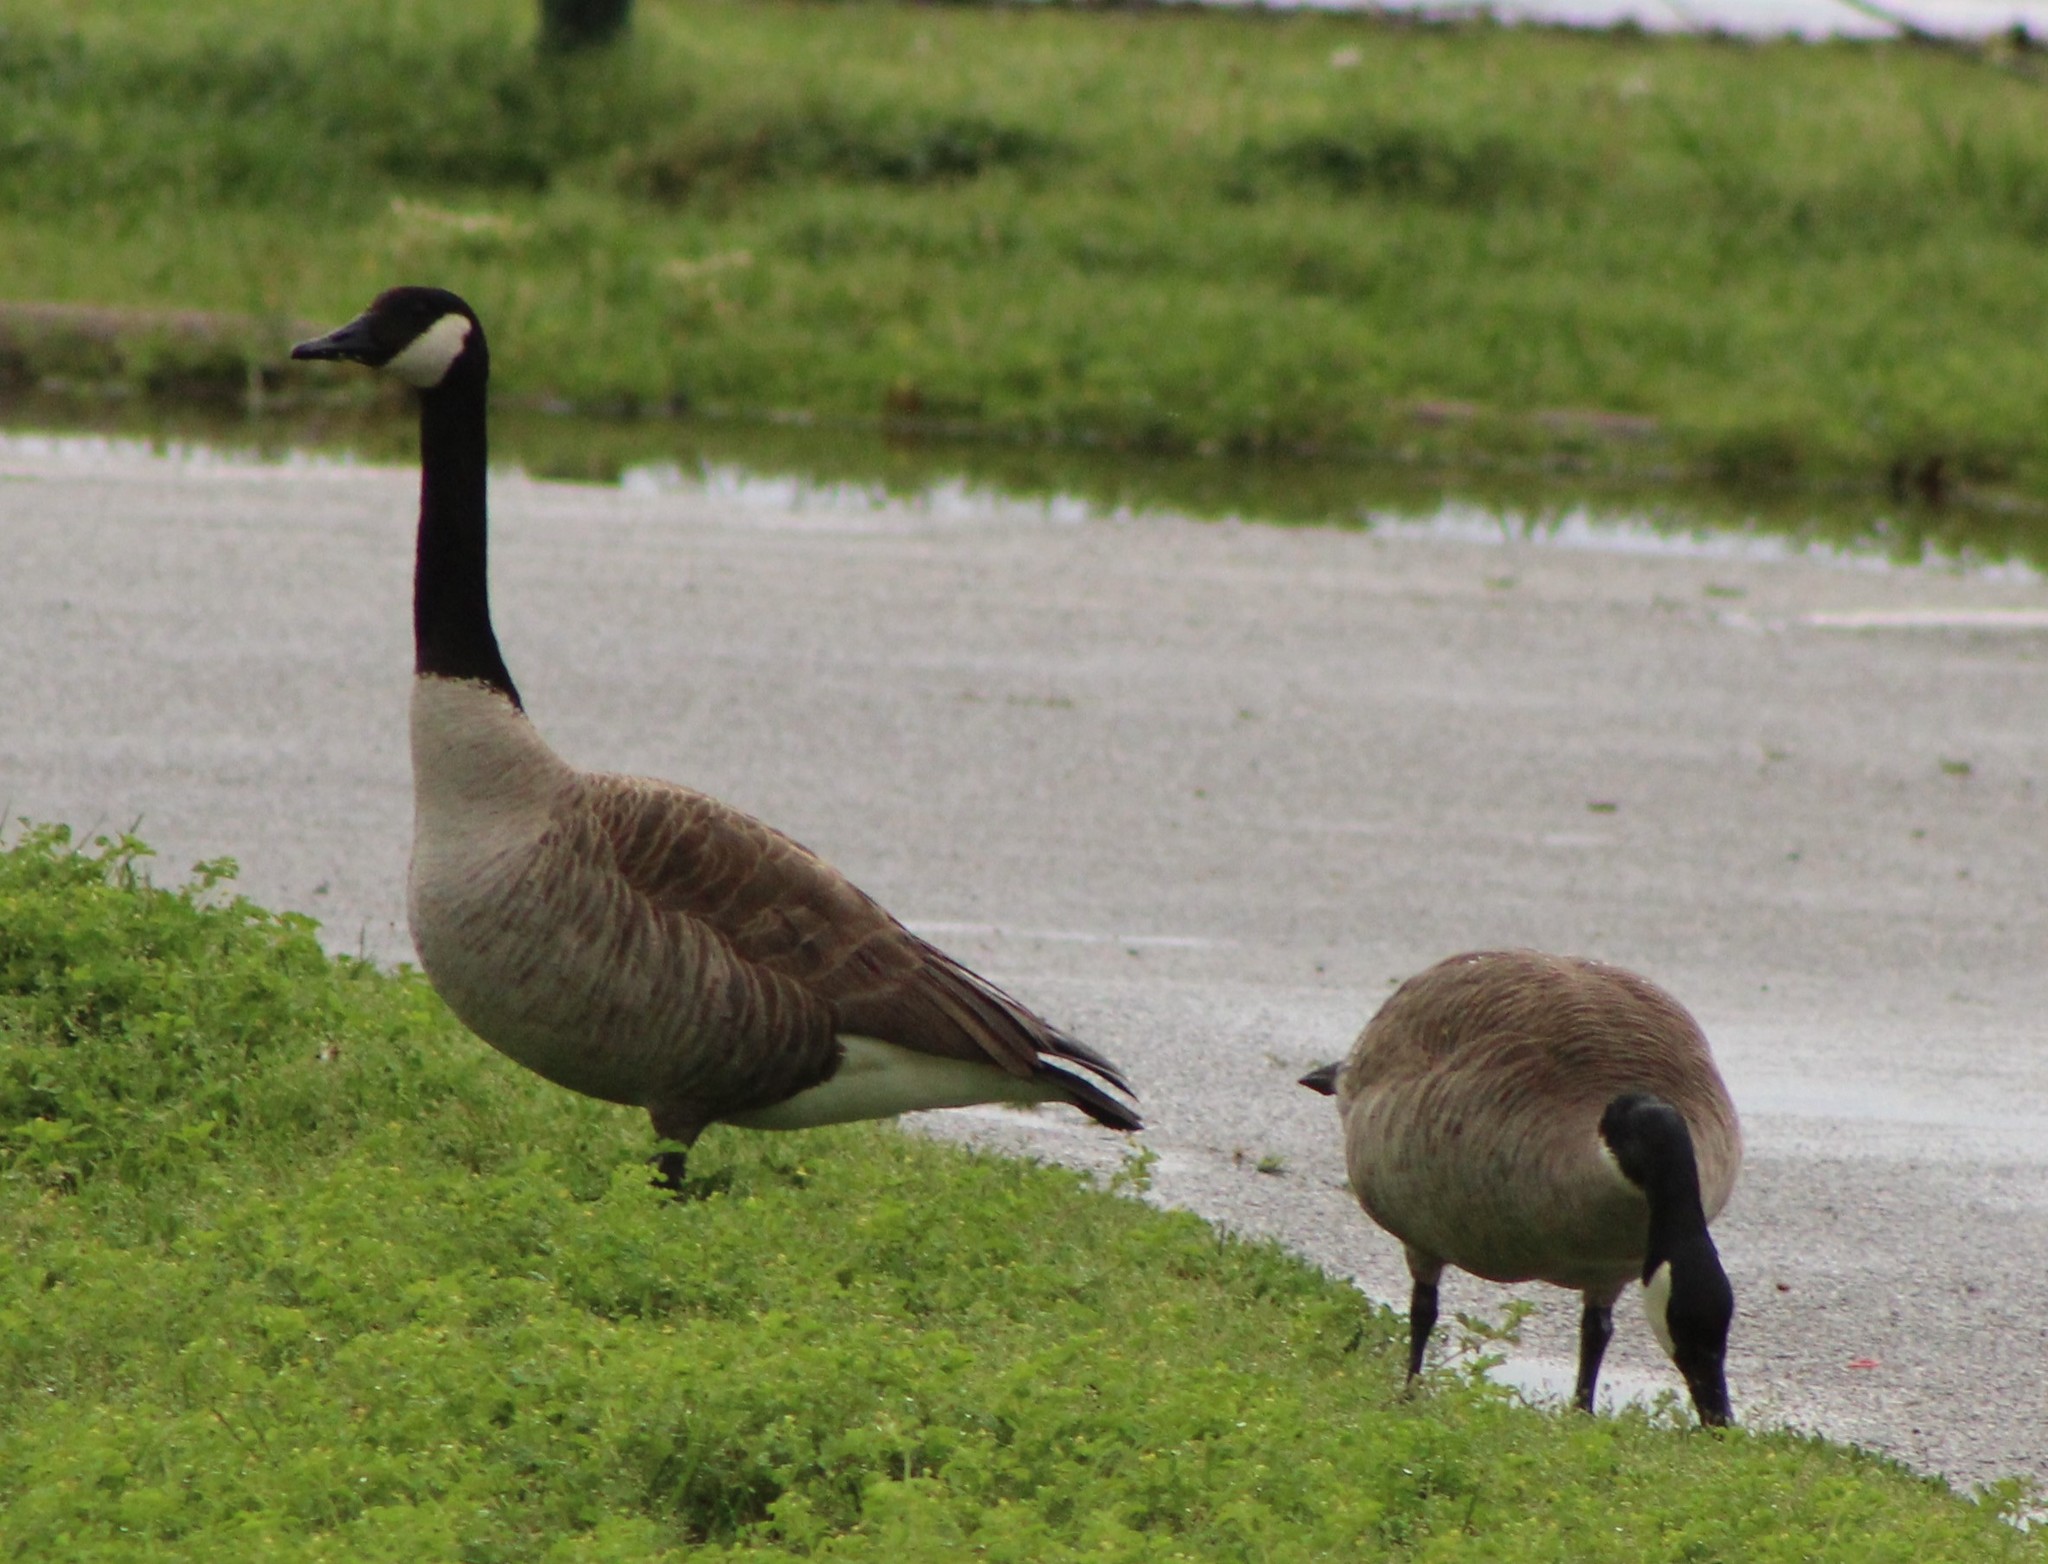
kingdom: Animalia
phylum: Chordata
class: Aves
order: Anseriformes
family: Anatidae
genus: Branta
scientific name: Branta canadensis
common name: Canada goose
